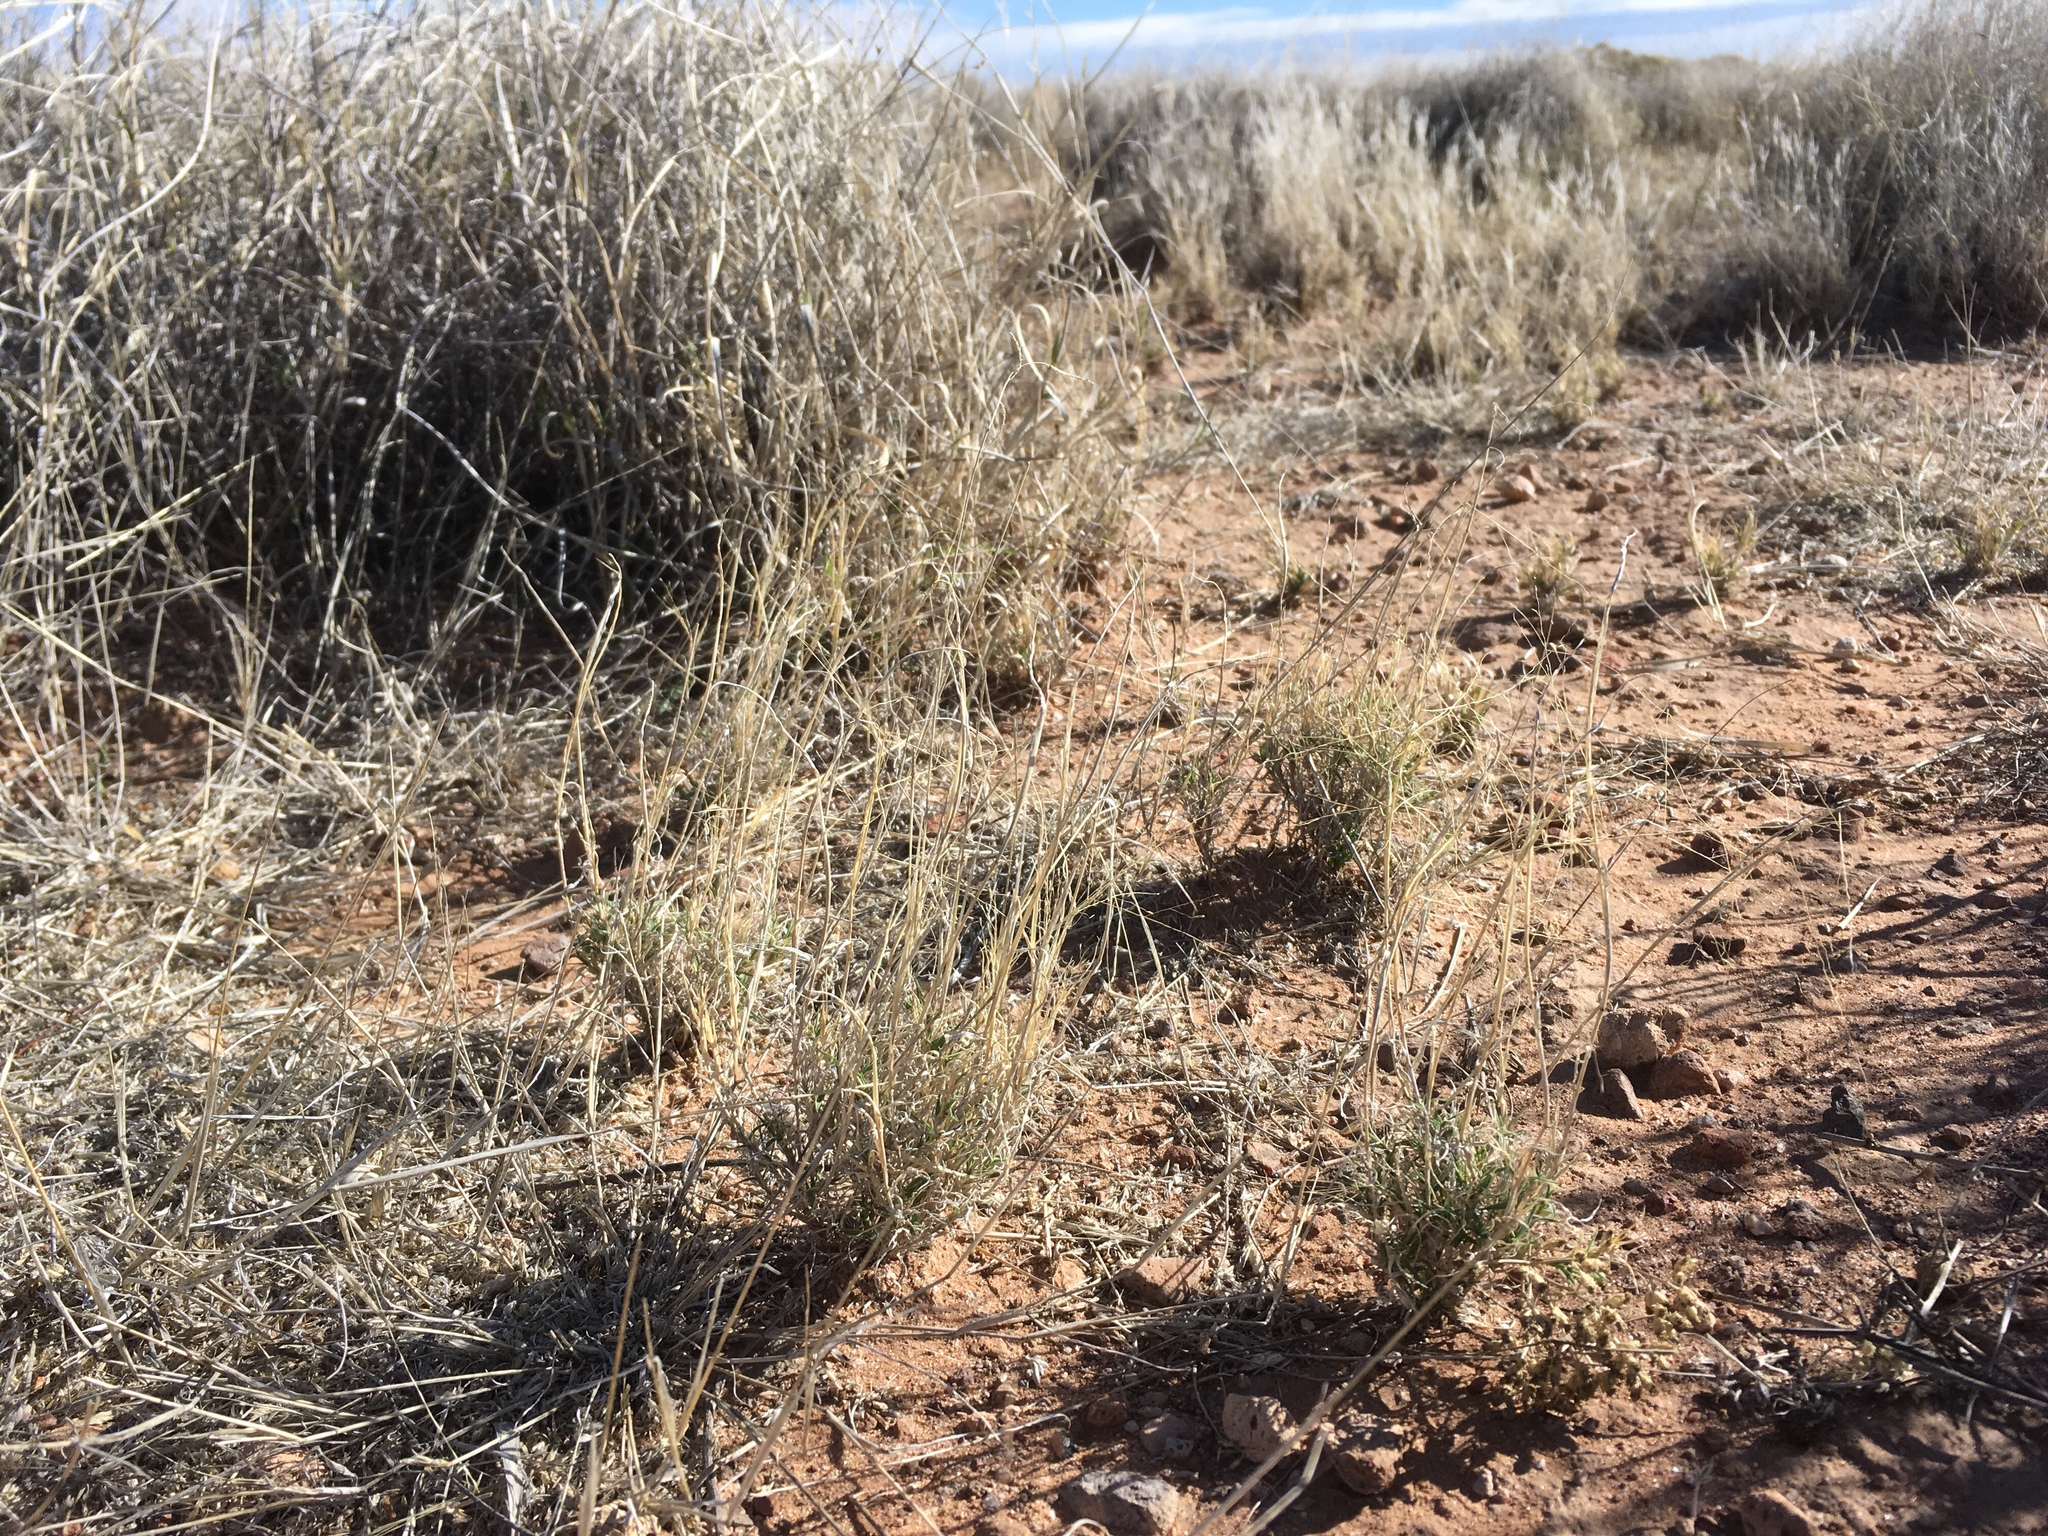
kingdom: Plantae
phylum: Tracheophyta
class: Liliopsida
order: Poales
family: Poaceae
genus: Muhlenbergia
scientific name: Muhlenbergia arenacea
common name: Ear muhly
